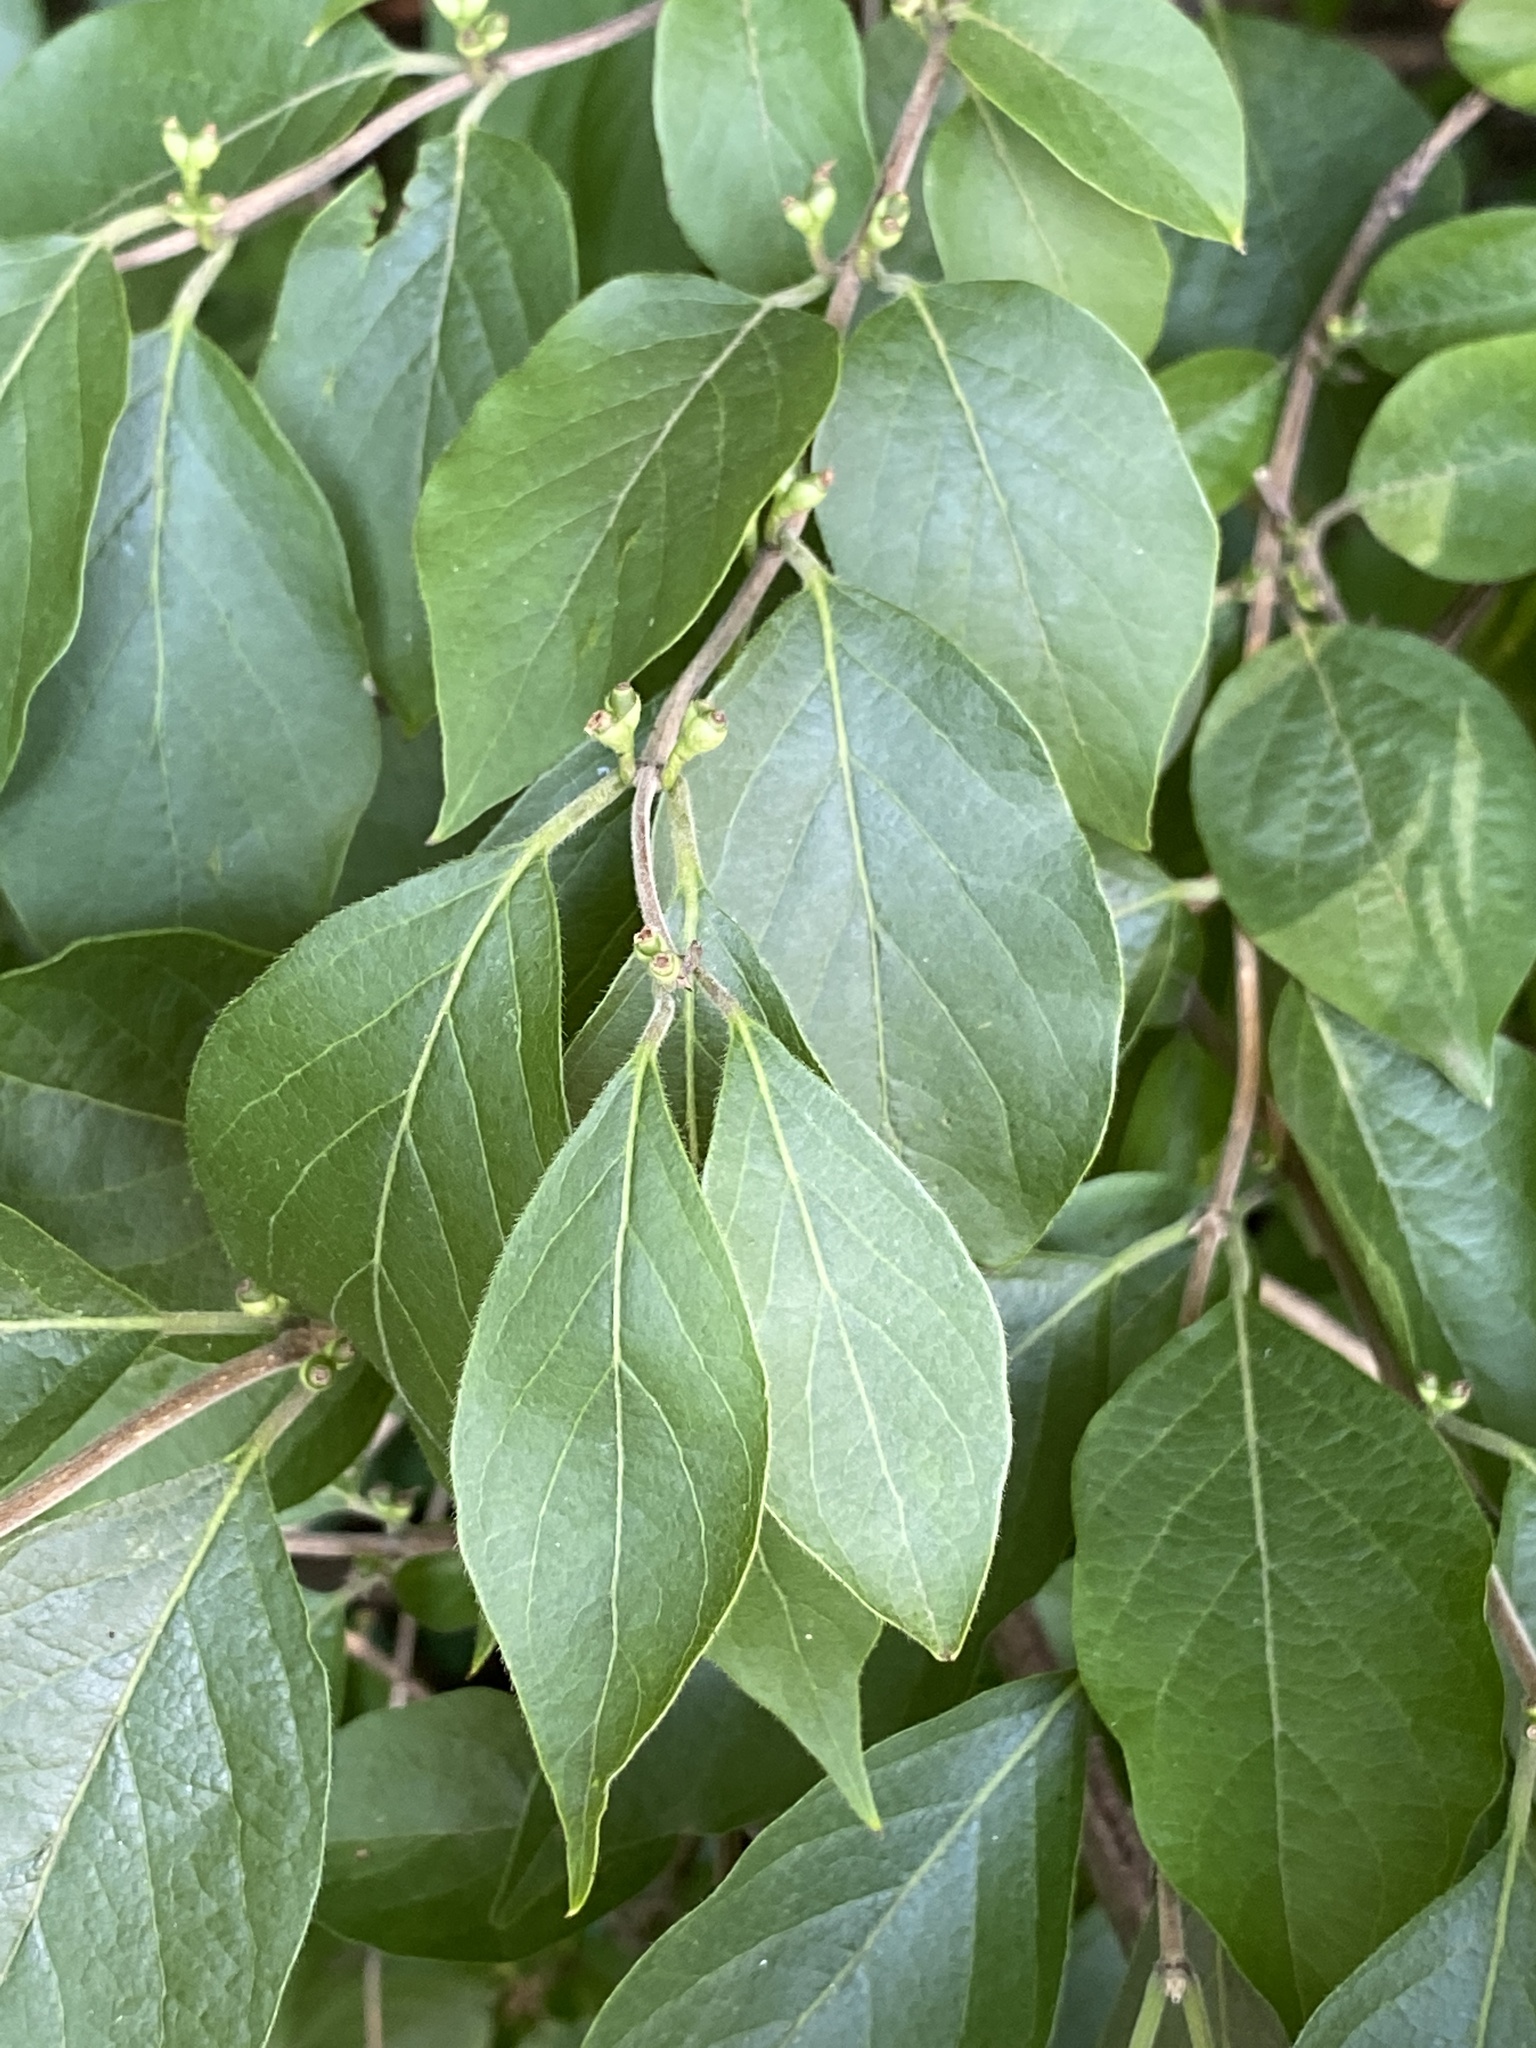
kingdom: Plantae
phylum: Tracheophyta
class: Magnoliopsida
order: Dipsacales
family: Caprifoliaceae
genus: Lonicera
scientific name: Lonicera maackii
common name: Amur honeysuckle
